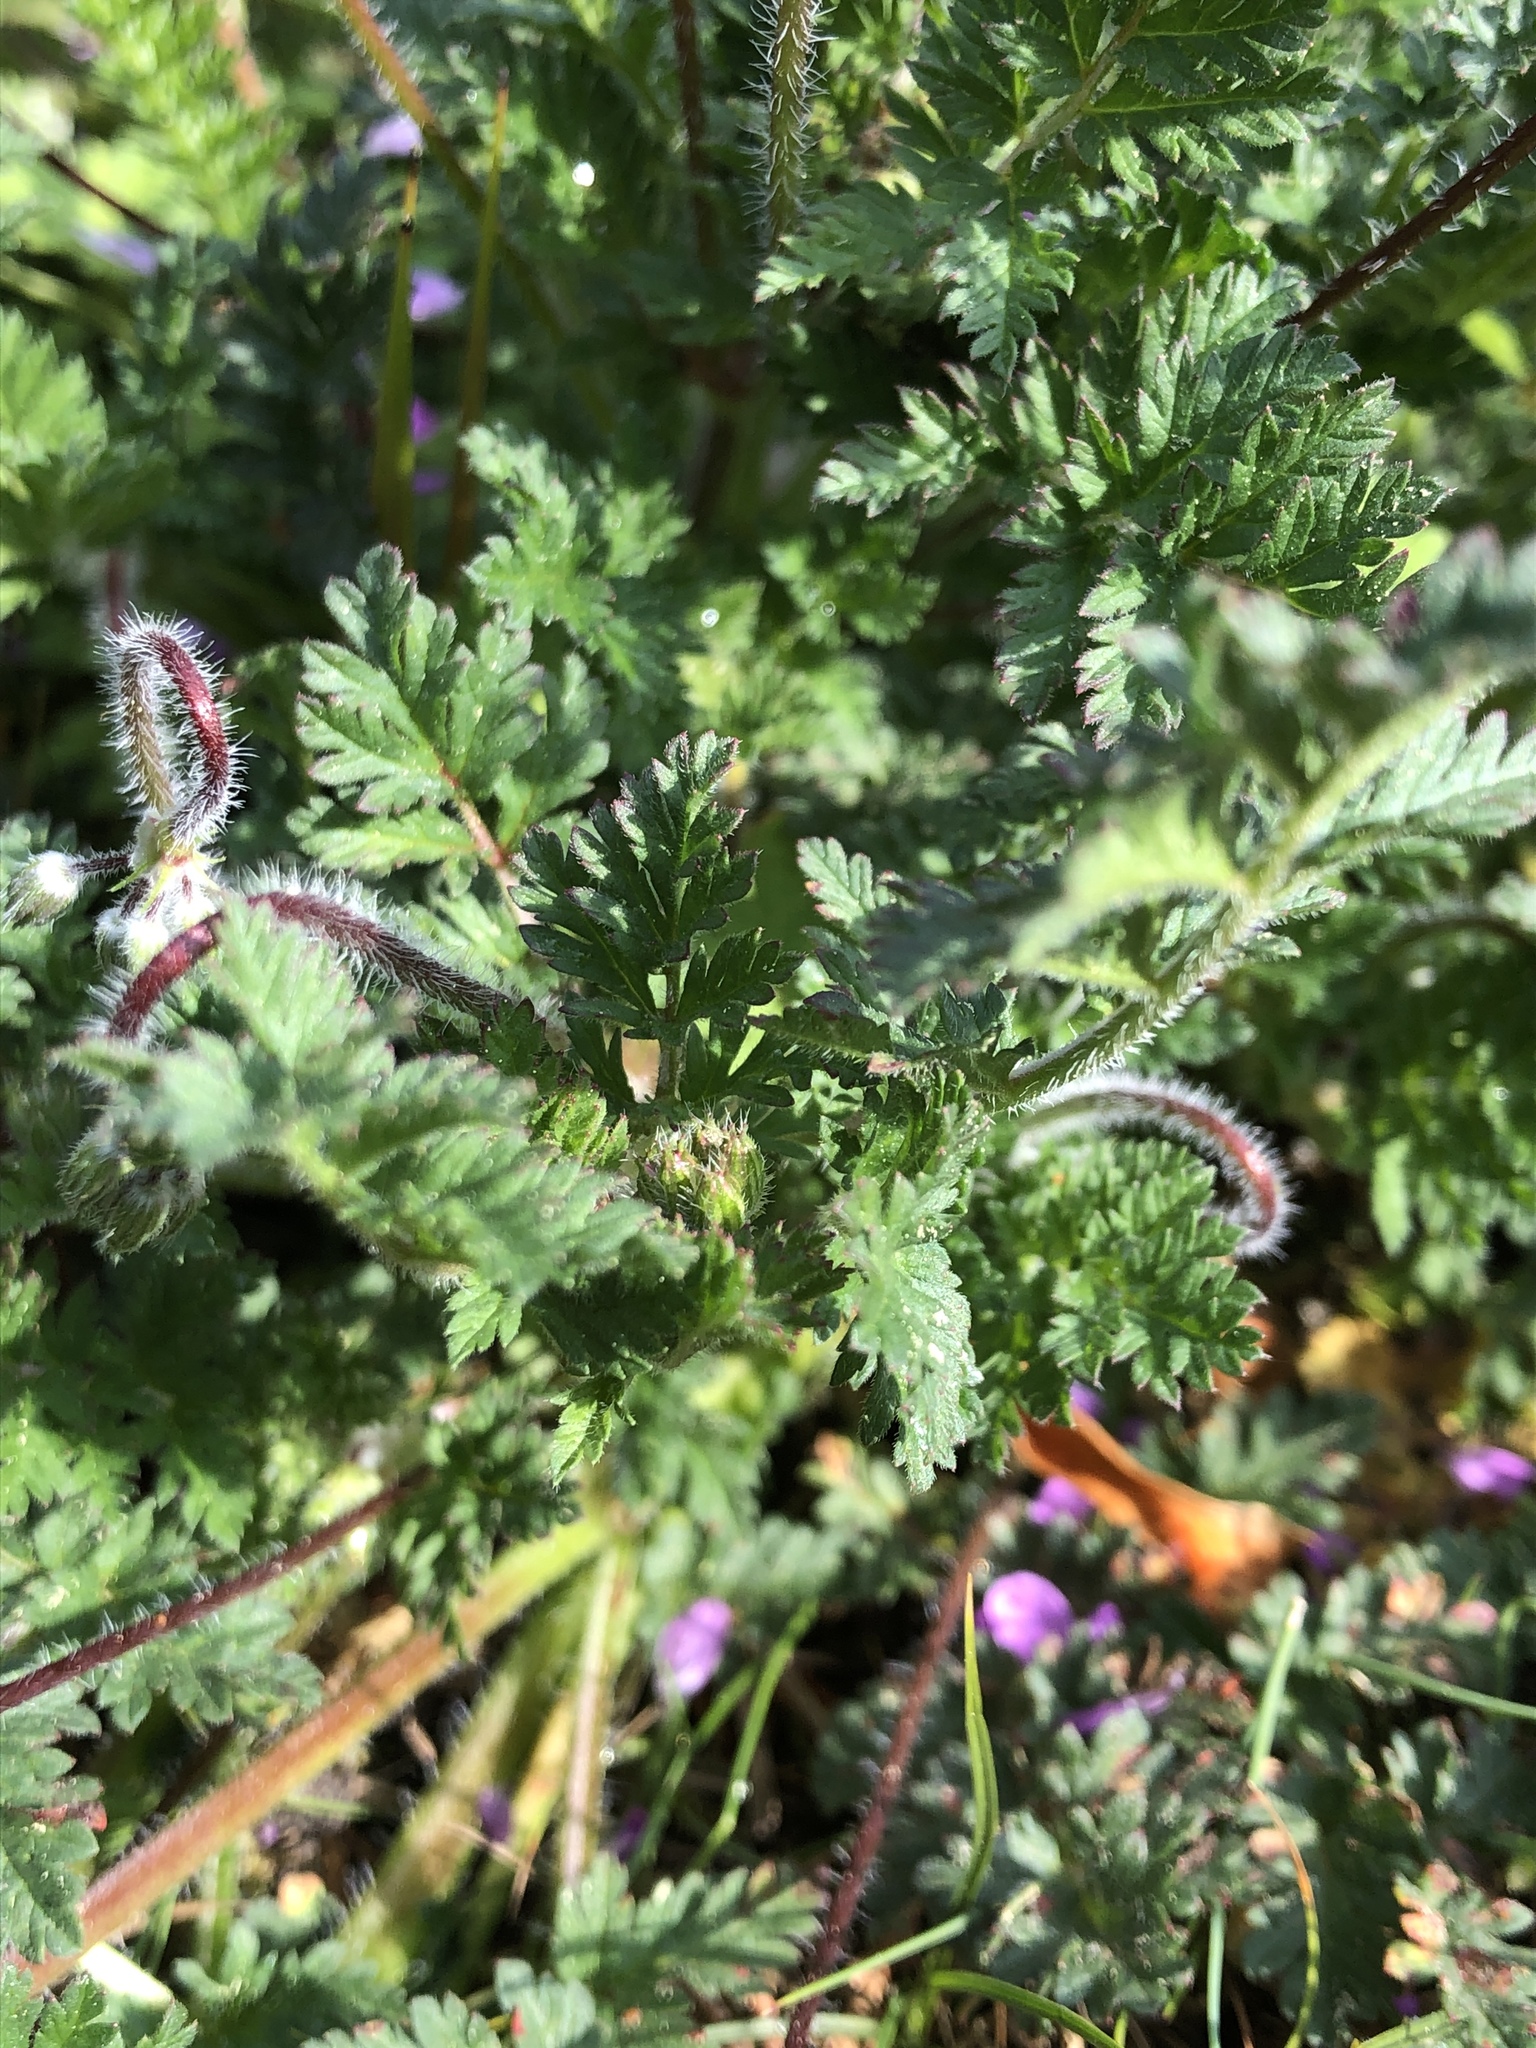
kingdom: Plantae
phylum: Tracheophyta
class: Magnoliopsida
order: Geraniales
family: Geraniaceae
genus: Erodium
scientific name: Erodium cicutarium
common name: Common stork's-bill
